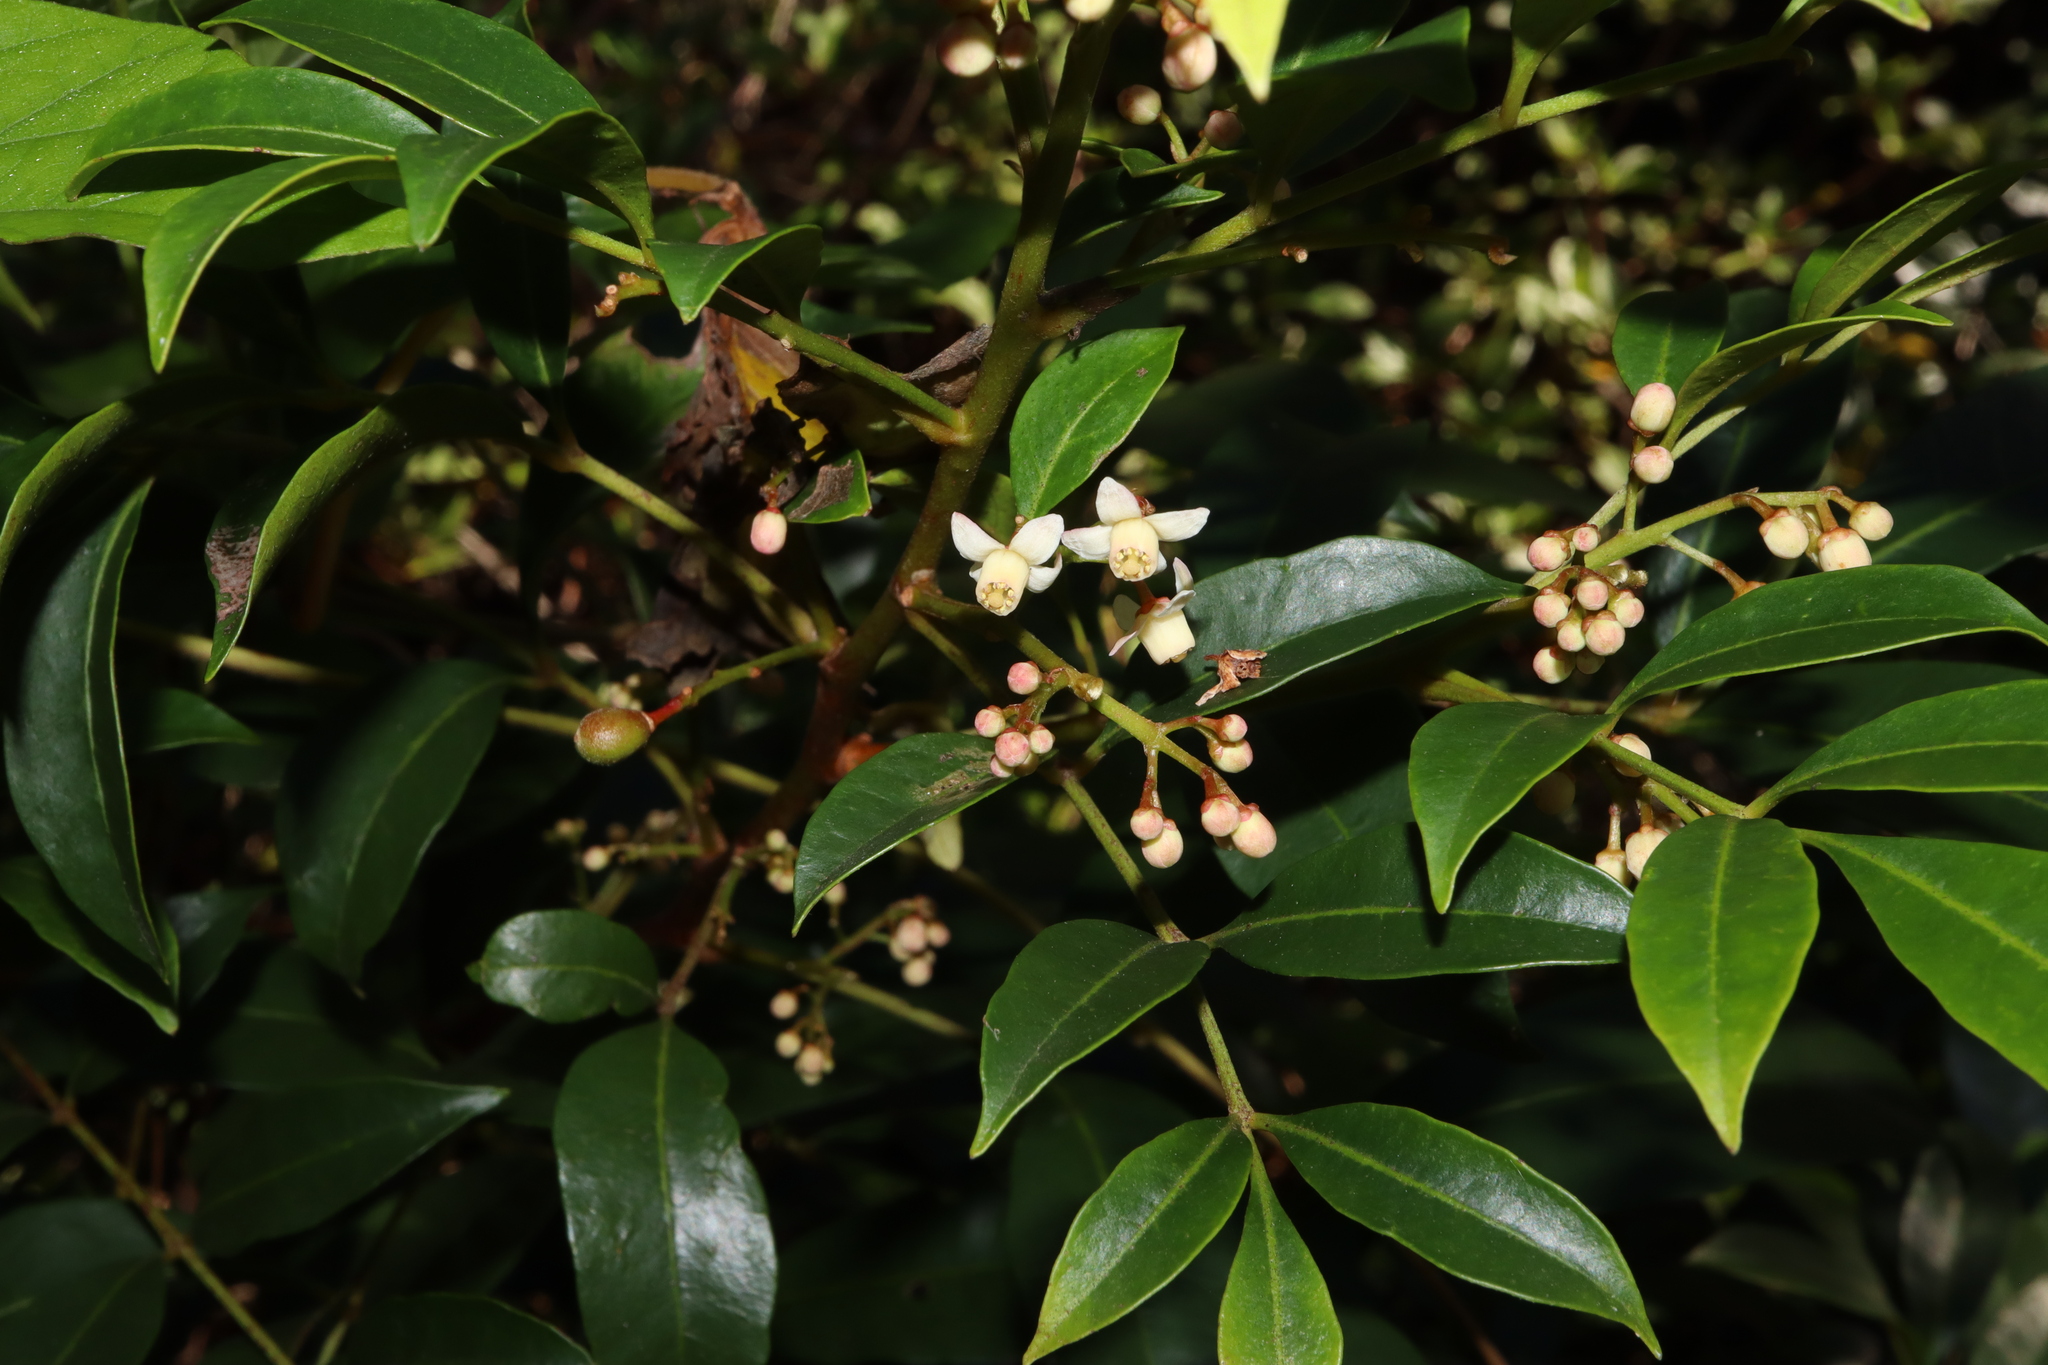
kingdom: Plantae
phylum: Tracheophyta
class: Magnoliopsida
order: Sapindales
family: Meliaceae
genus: Synoum
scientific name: Synoum glandulosum
